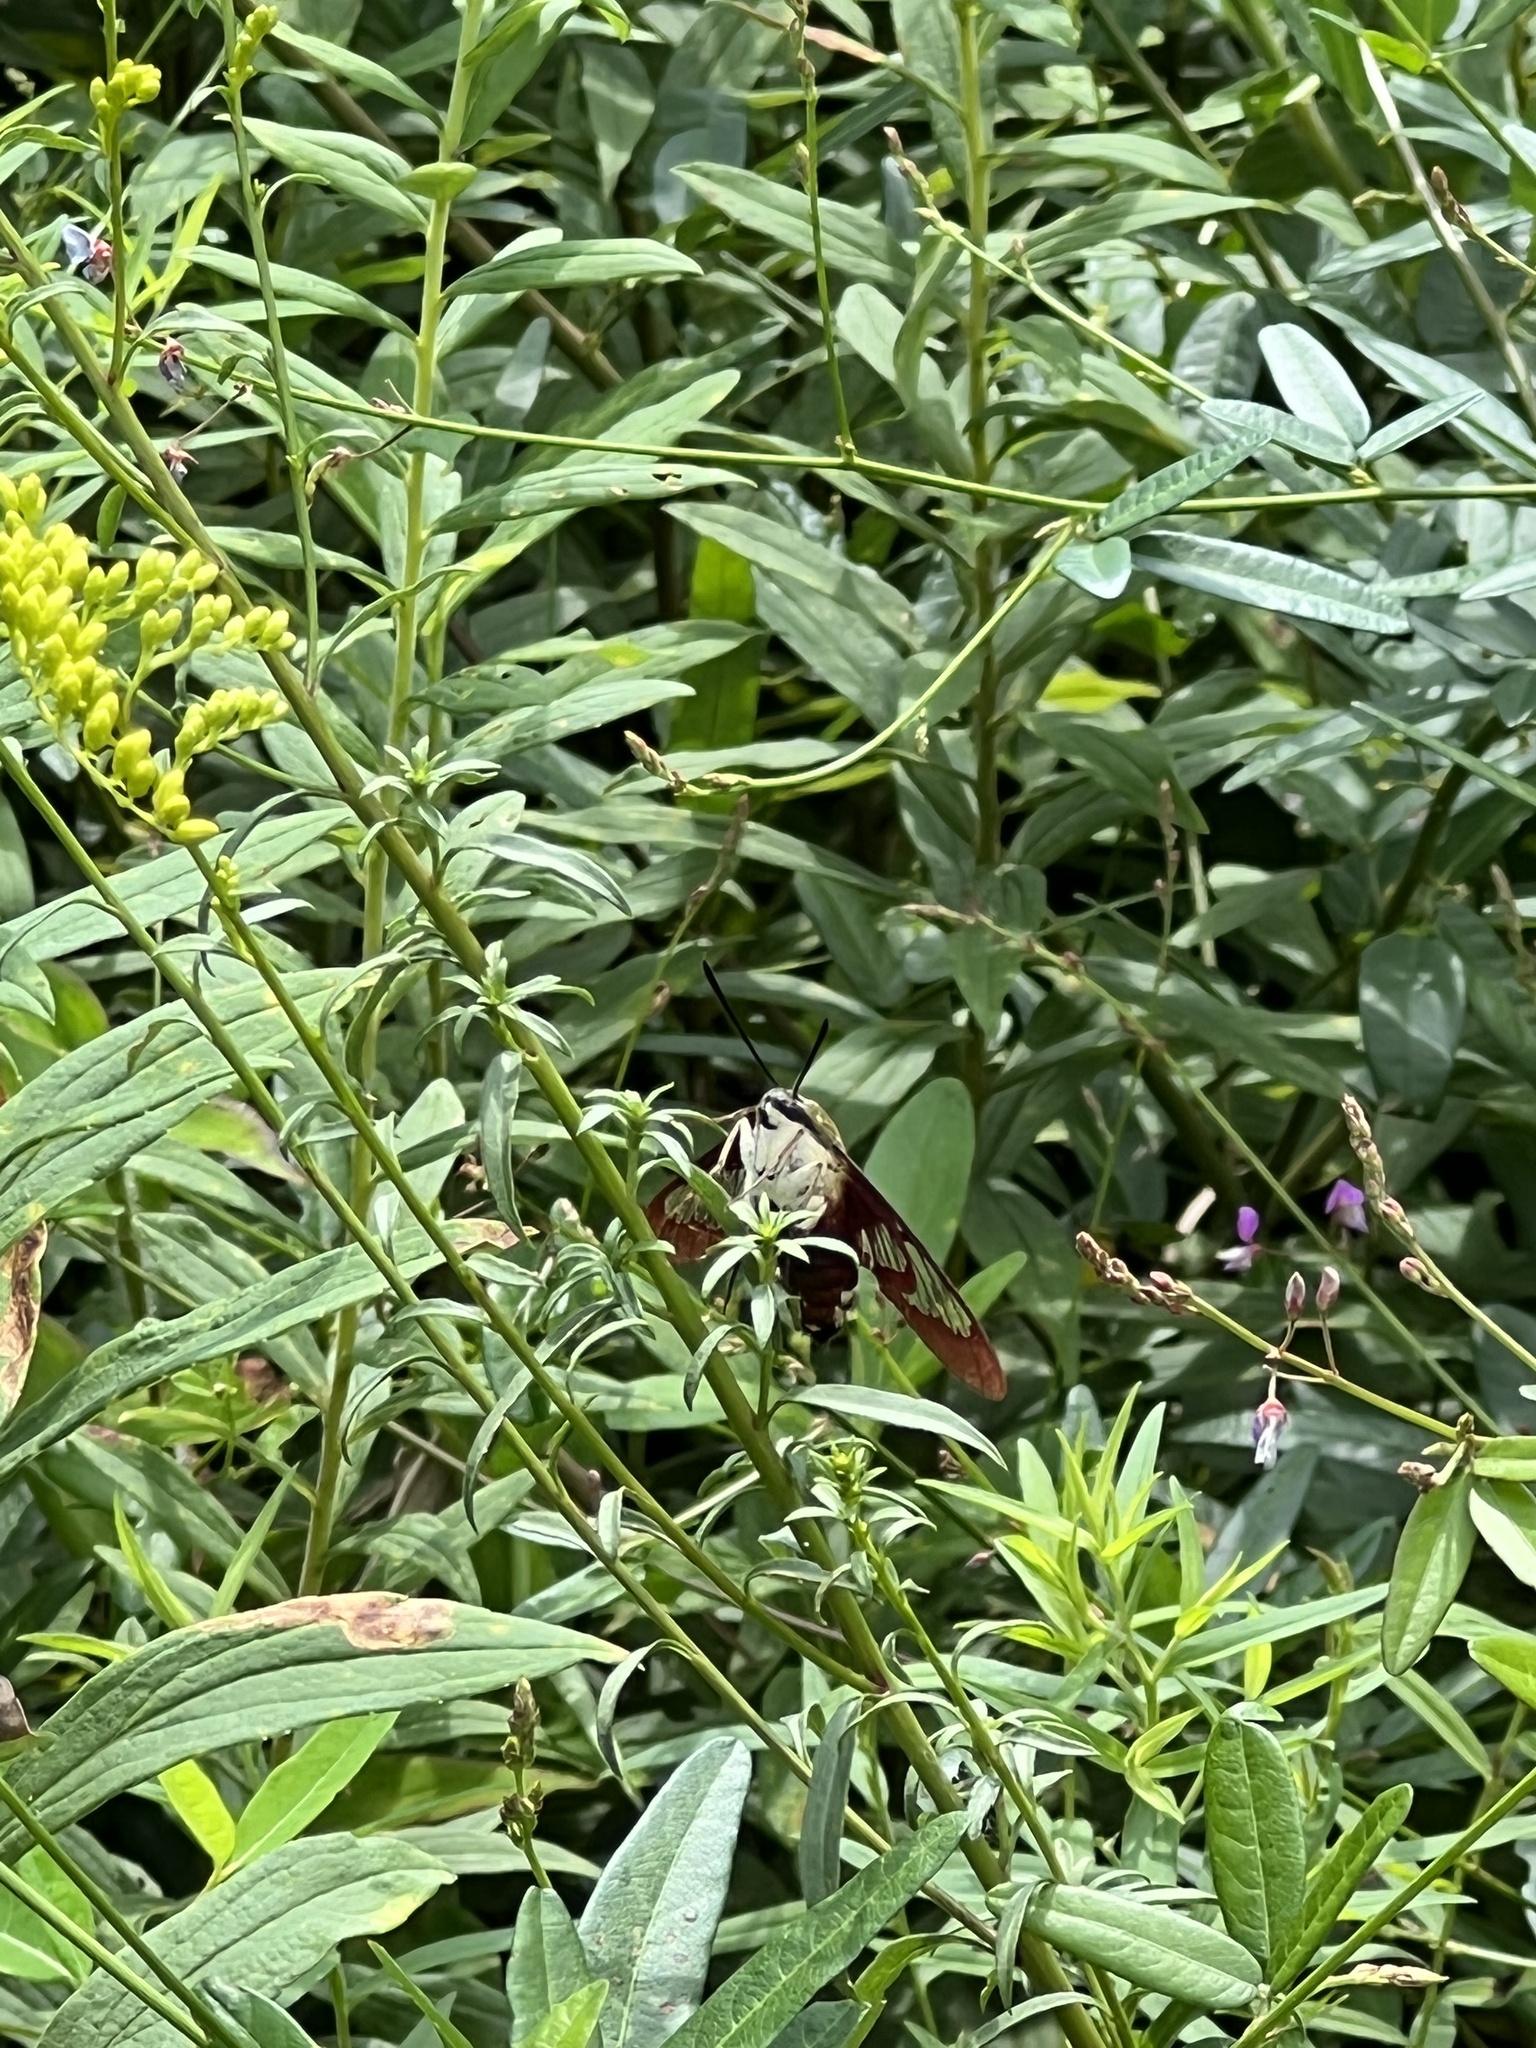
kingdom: Animalia
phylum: Arthropoda
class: Insecta
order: Lepidoptera
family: Sphingidae
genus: Hemaris
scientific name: Hemaris thysbe
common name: Common clear-wing
